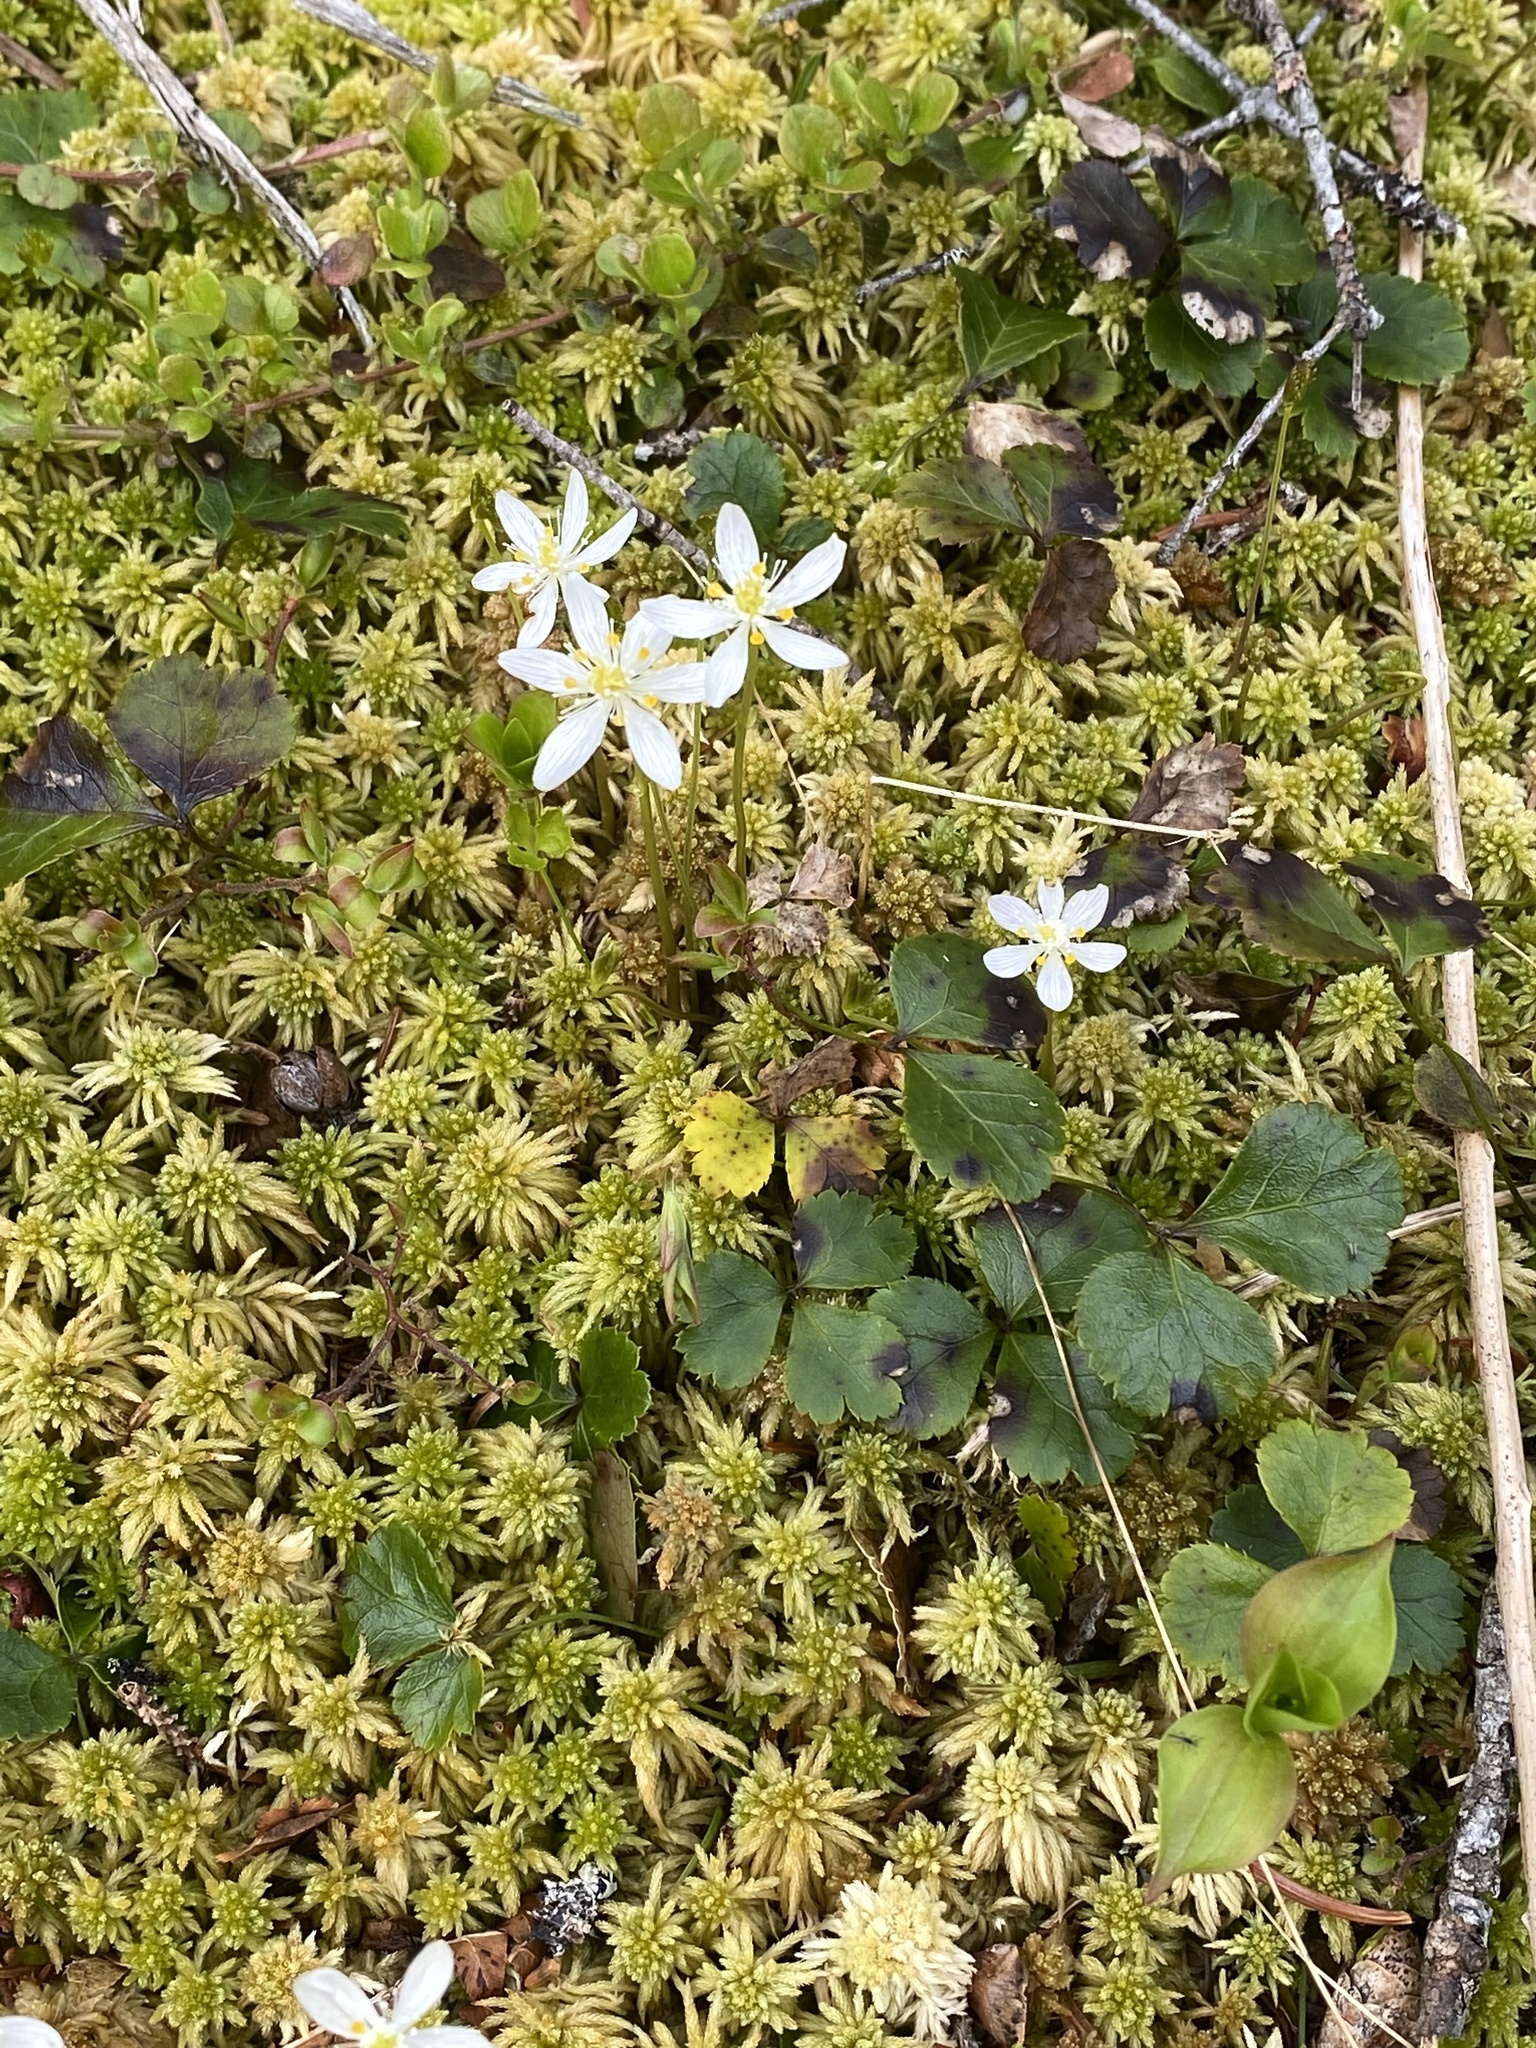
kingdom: Plantae
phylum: Tracheophyta
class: Magnoliopsida
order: Ranunculales
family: Ranunculaceae
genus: Coptis
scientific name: Coptis trifolia
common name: Canker-root
